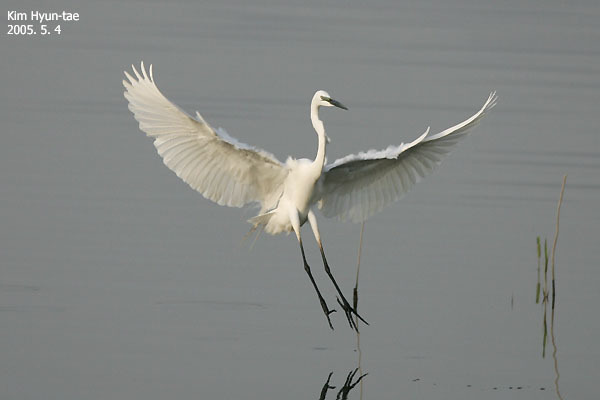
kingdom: Animalia
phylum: Chordata
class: Aves
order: Pelecaniformes
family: Ardeidae
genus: Ardea
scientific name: Ardea alba
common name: Great egret
